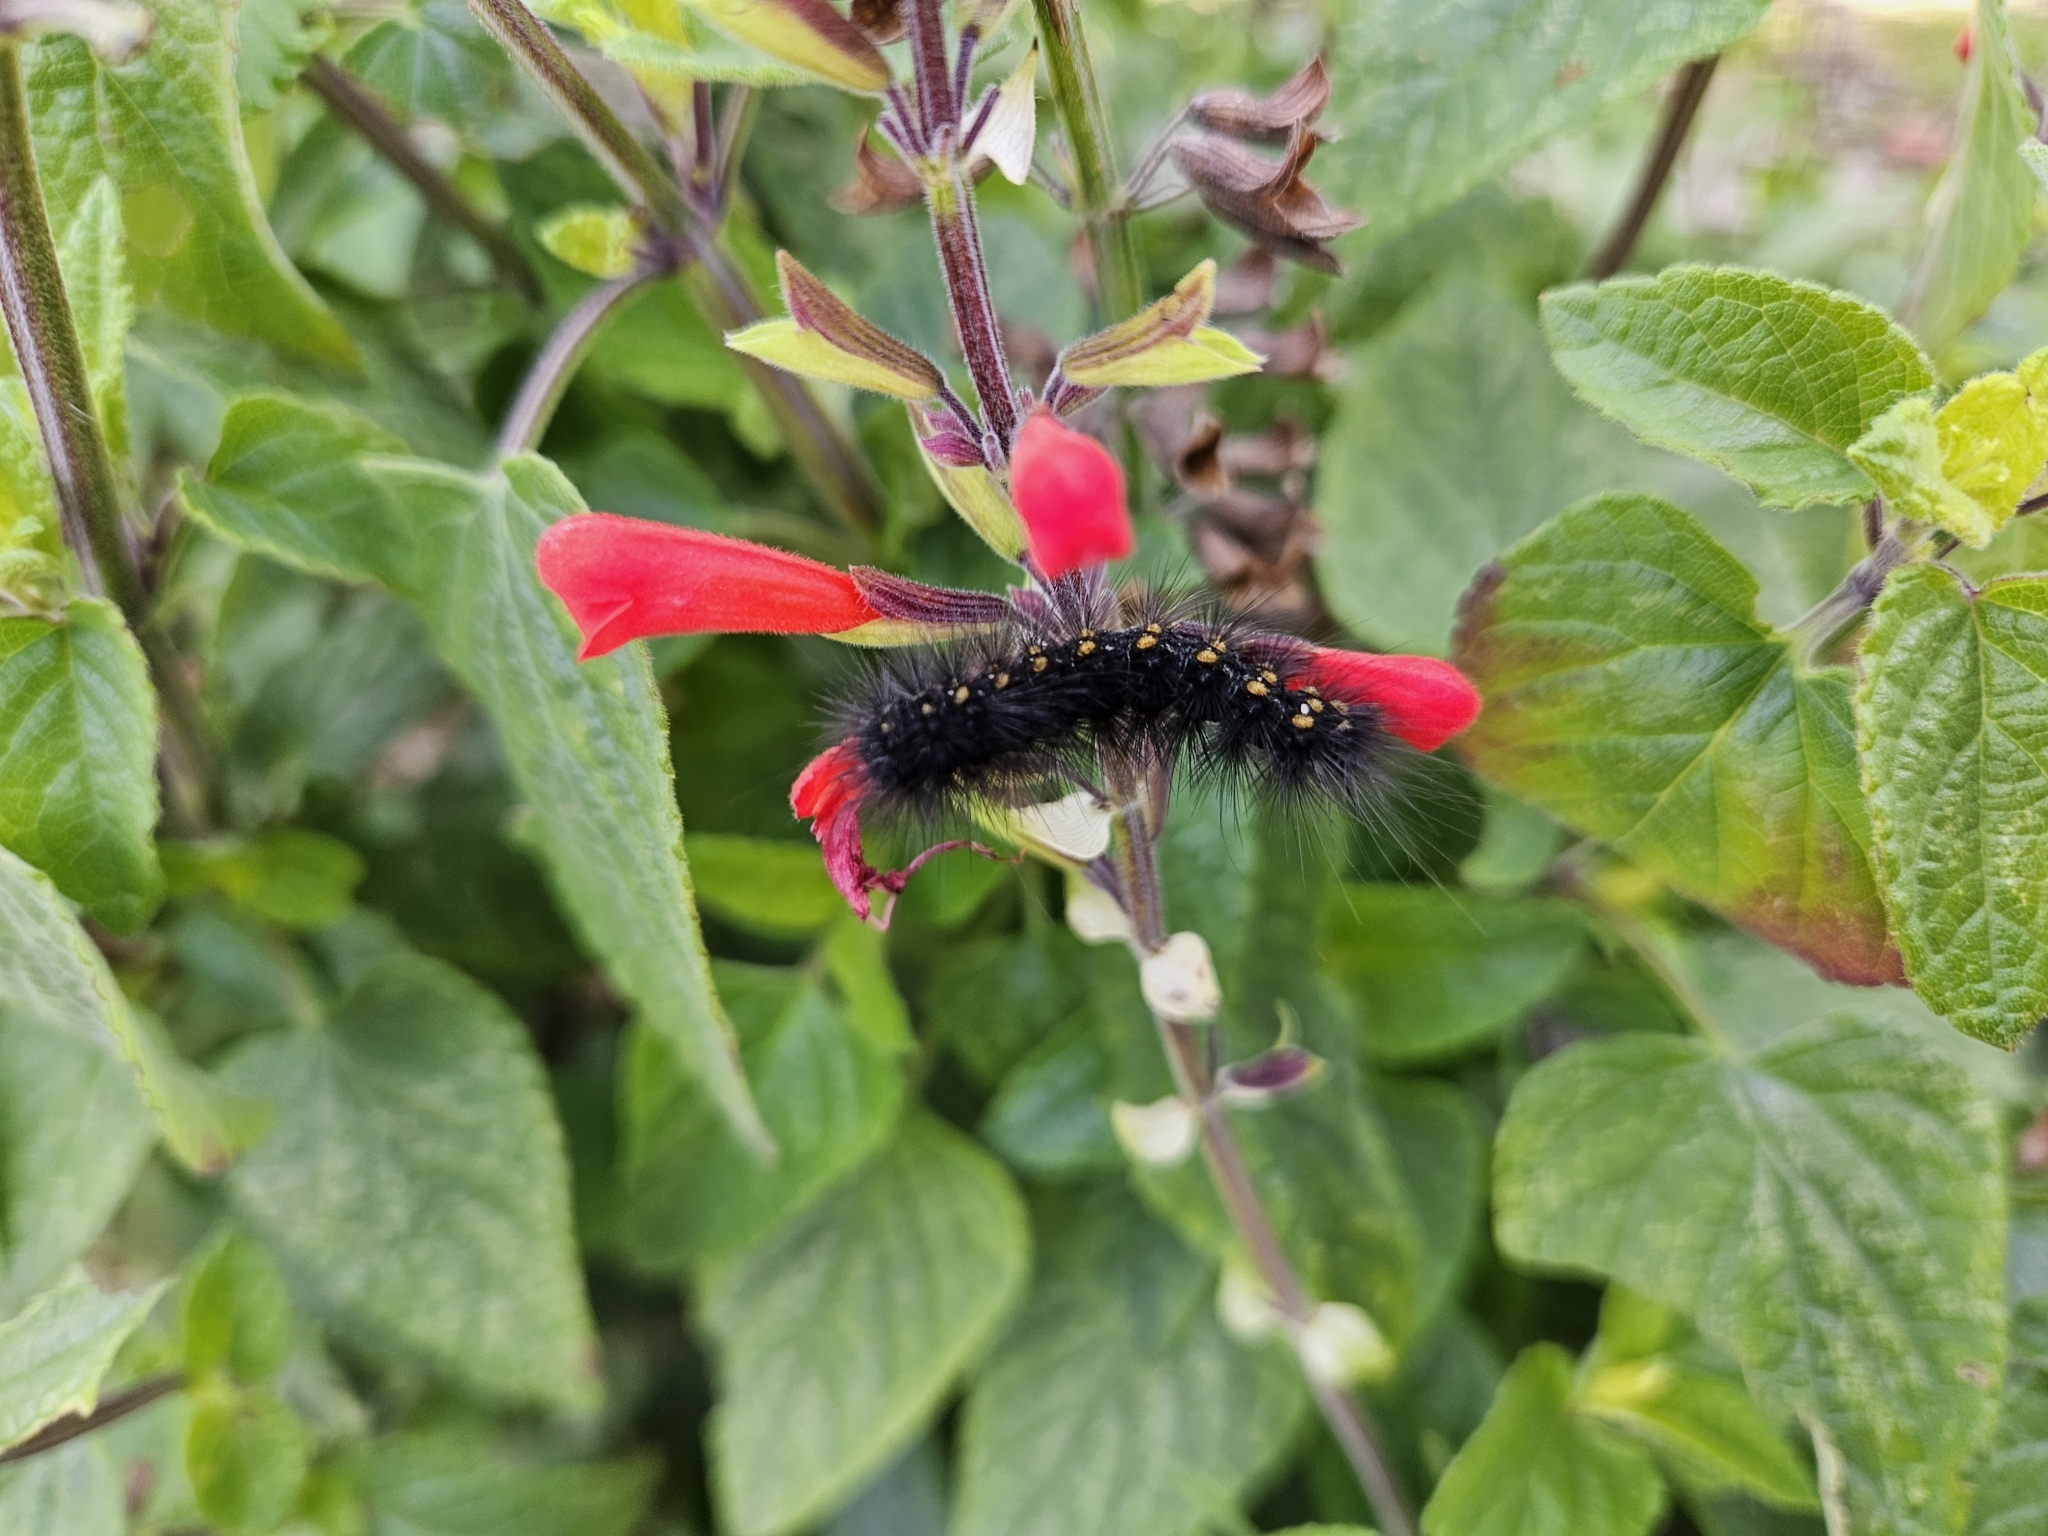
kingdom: Animalia
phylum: Arthropoda
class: Insecta
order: Lepidoptera
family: Erebidae
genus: Estigmene
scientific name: Estigmene acrea
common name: Salt marsh moth
